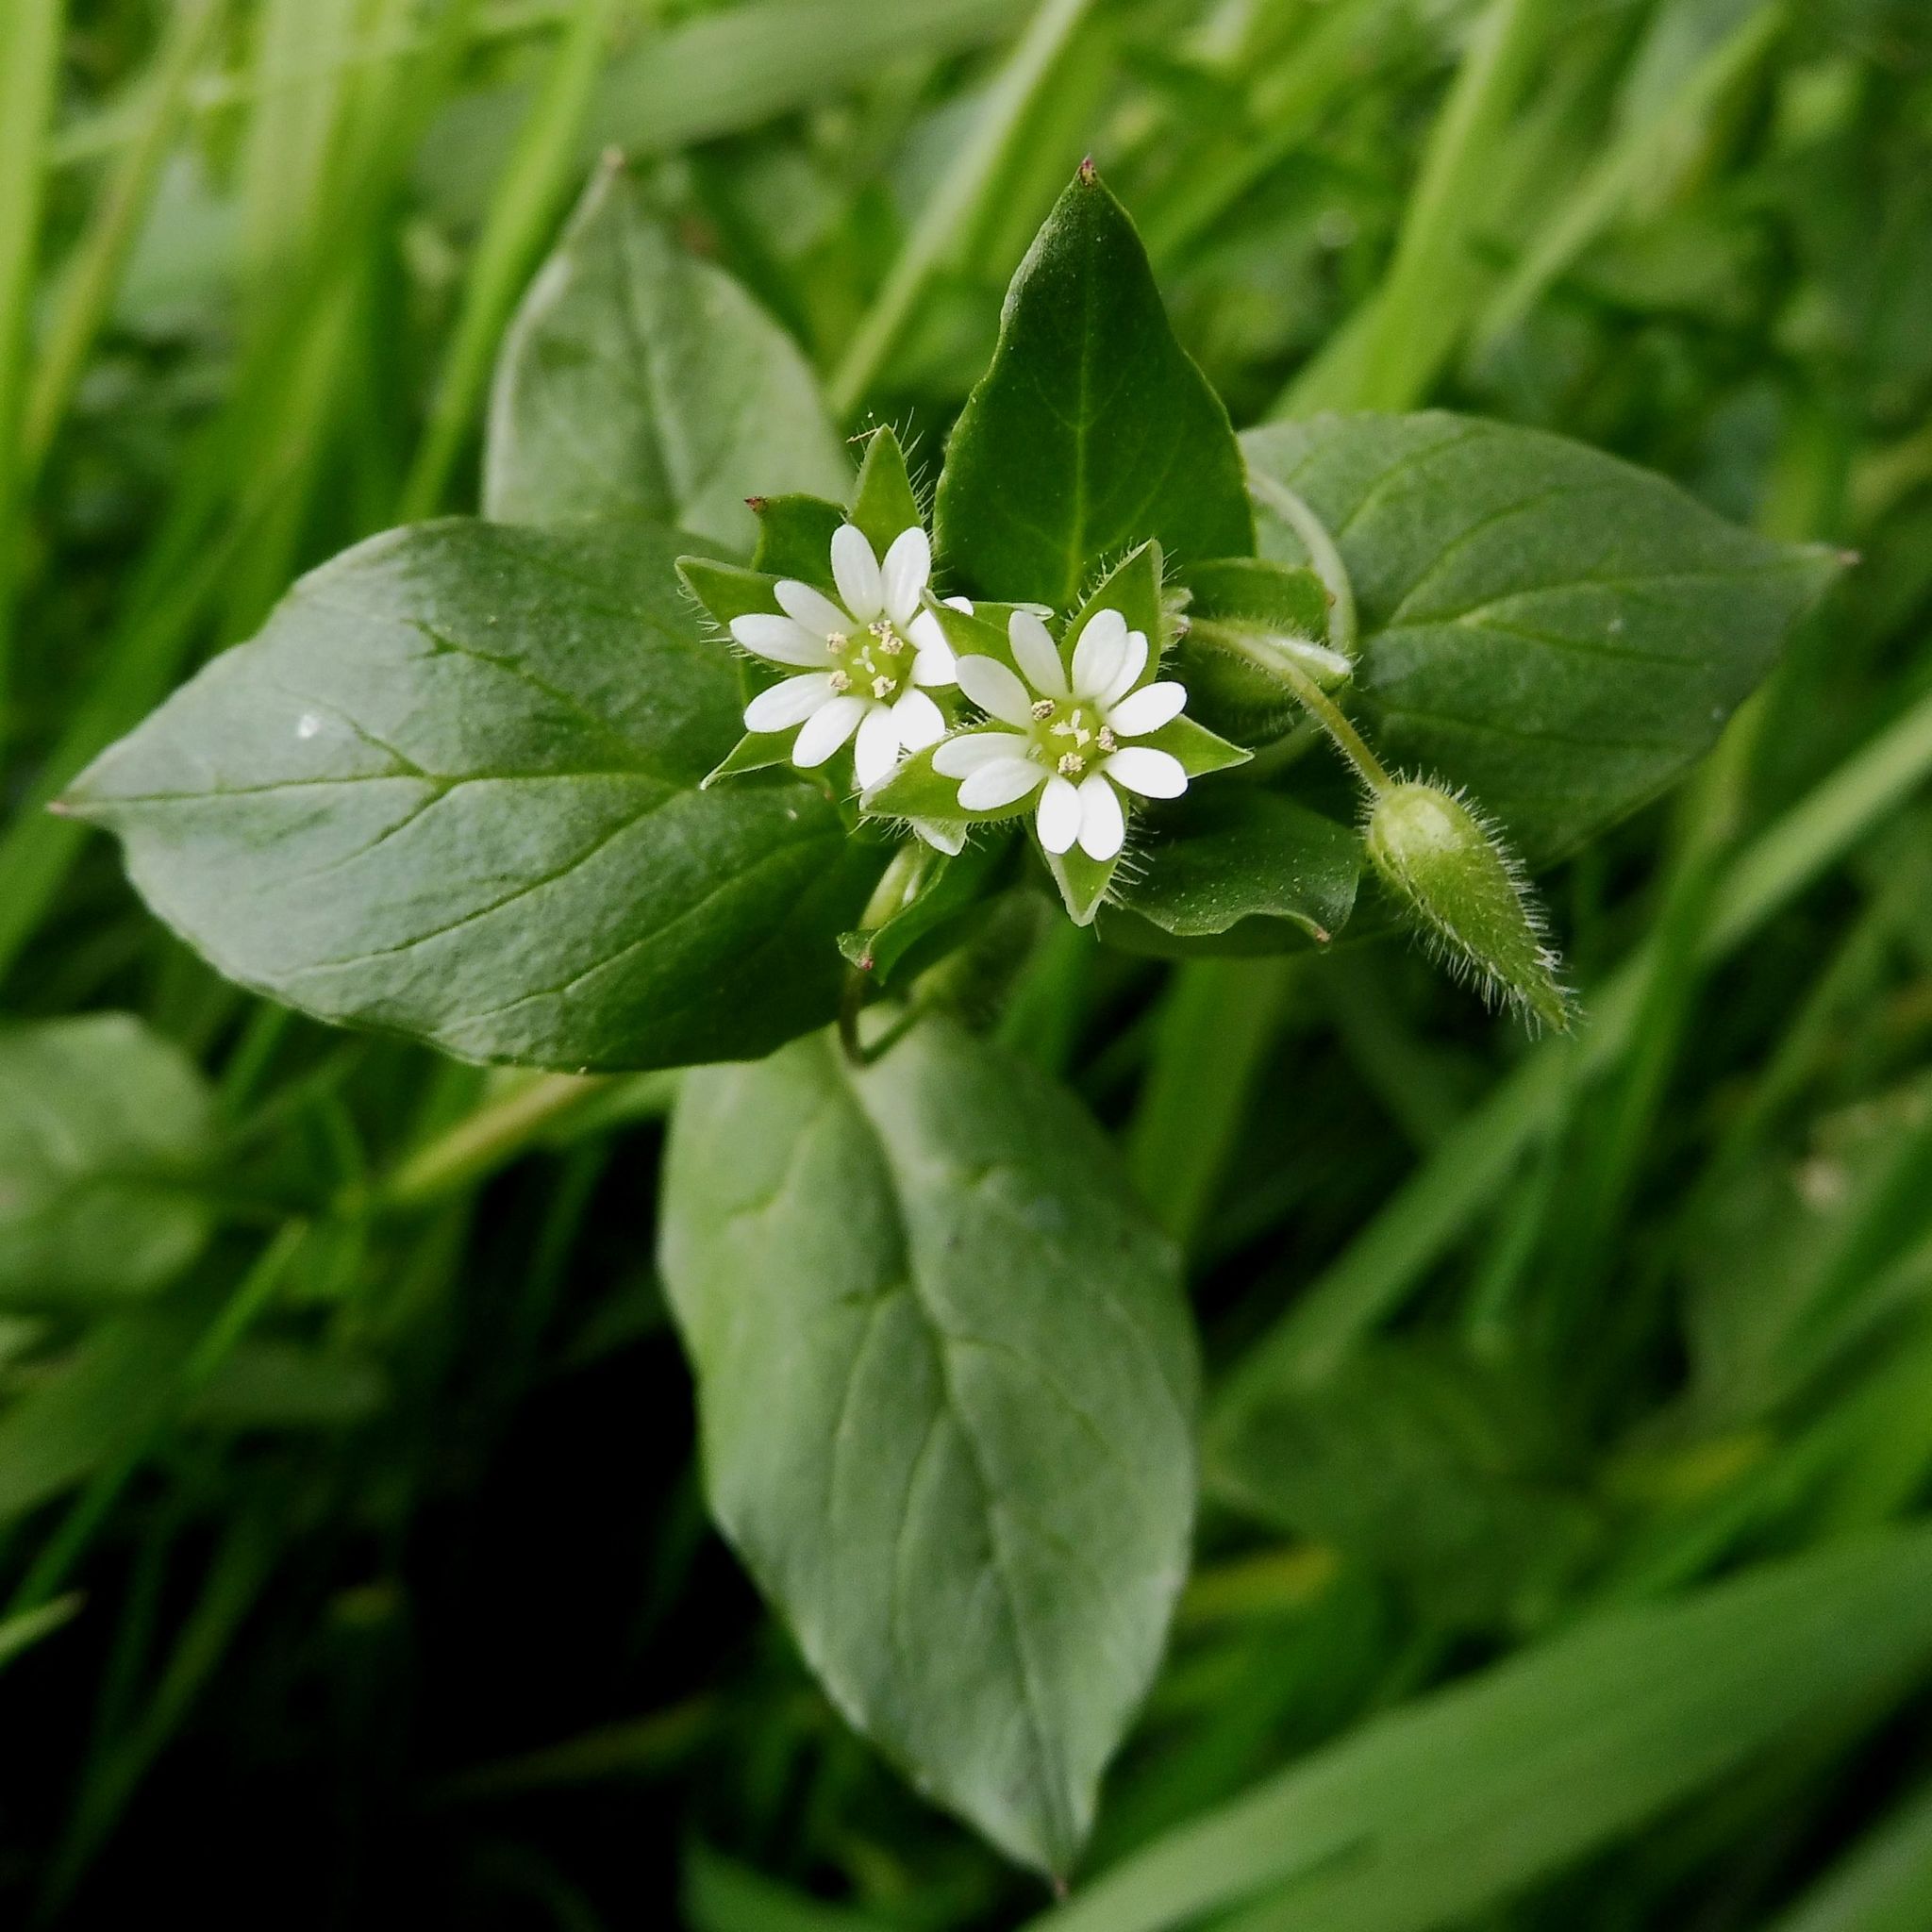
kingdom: Plantae
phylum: Tracheophyta
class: Magnoliopsida
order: Caryophyllales
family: Caryophyllaceae
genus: Stellaria
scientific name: Stellaria media
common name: Common chickweed
